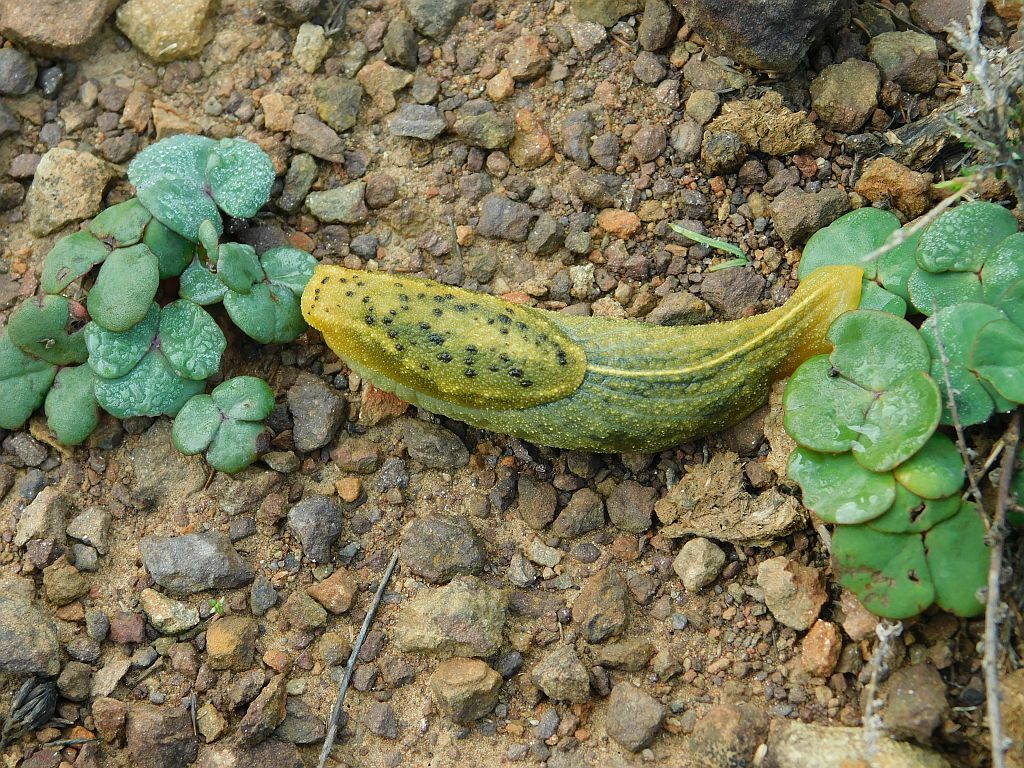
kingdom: Animalia
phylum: Mollusca
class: Gastropoda
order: Stylommatophora
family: Oopeltidae
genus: Oopelta
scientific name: Oopelta nigropunctata
